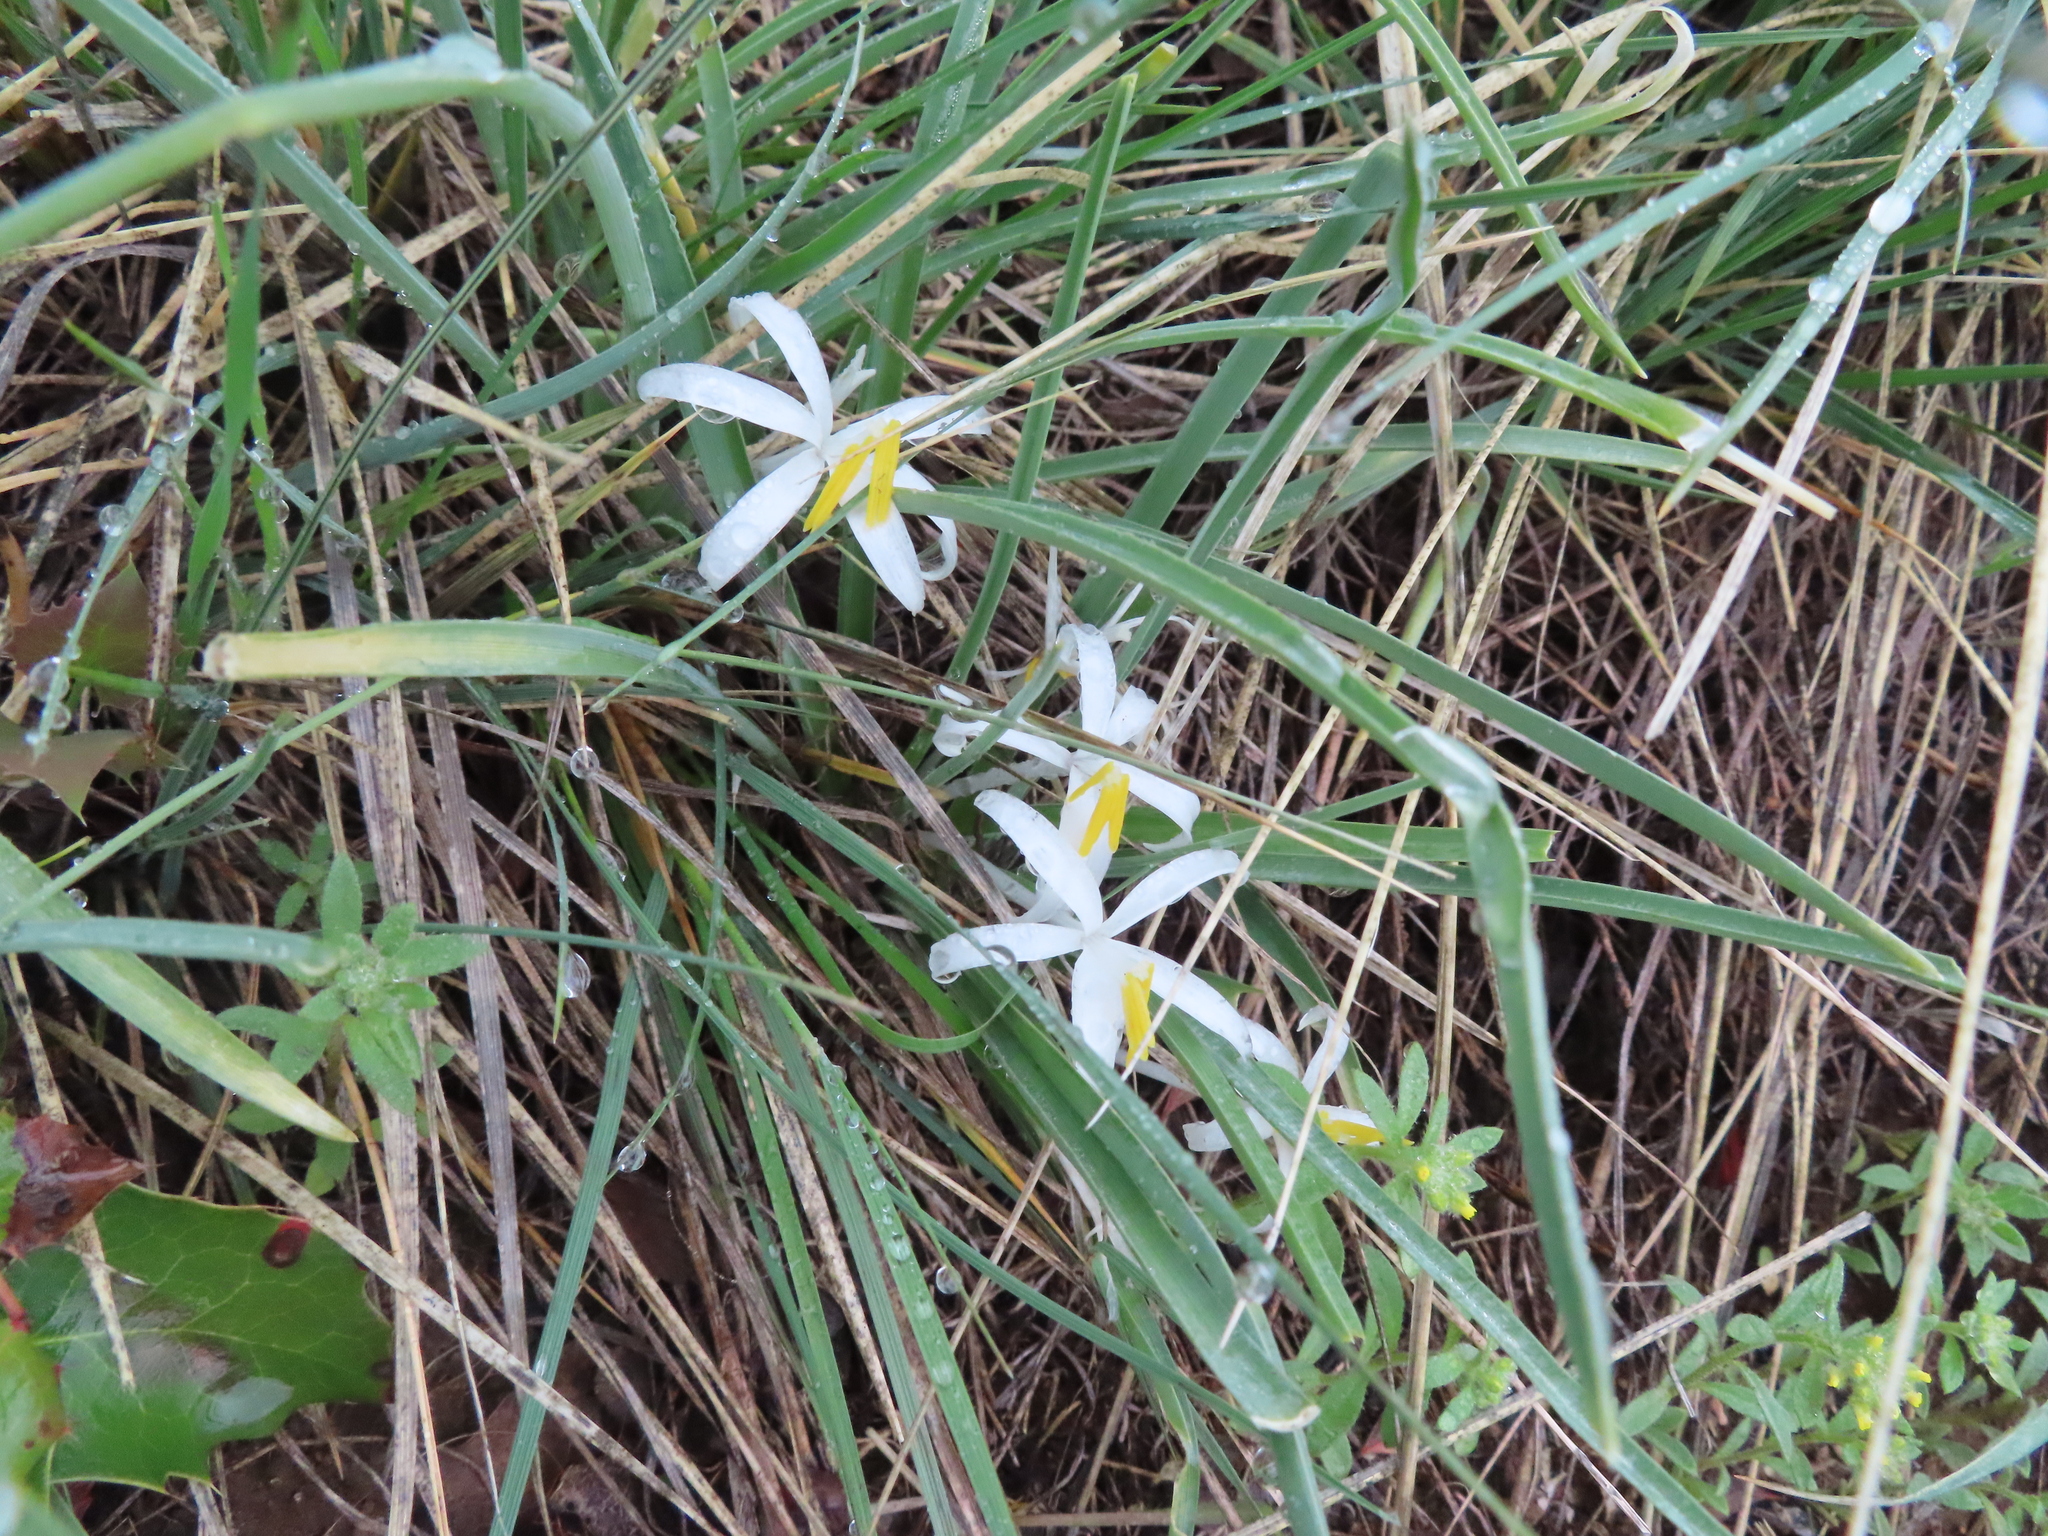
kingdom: Plantae
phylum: Tracheophyta
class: Liliopsida
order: Asparagales
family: Asparagaceae
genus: Leucocrinum
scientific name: Leucocrinum montanum
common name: Mountain-lily
